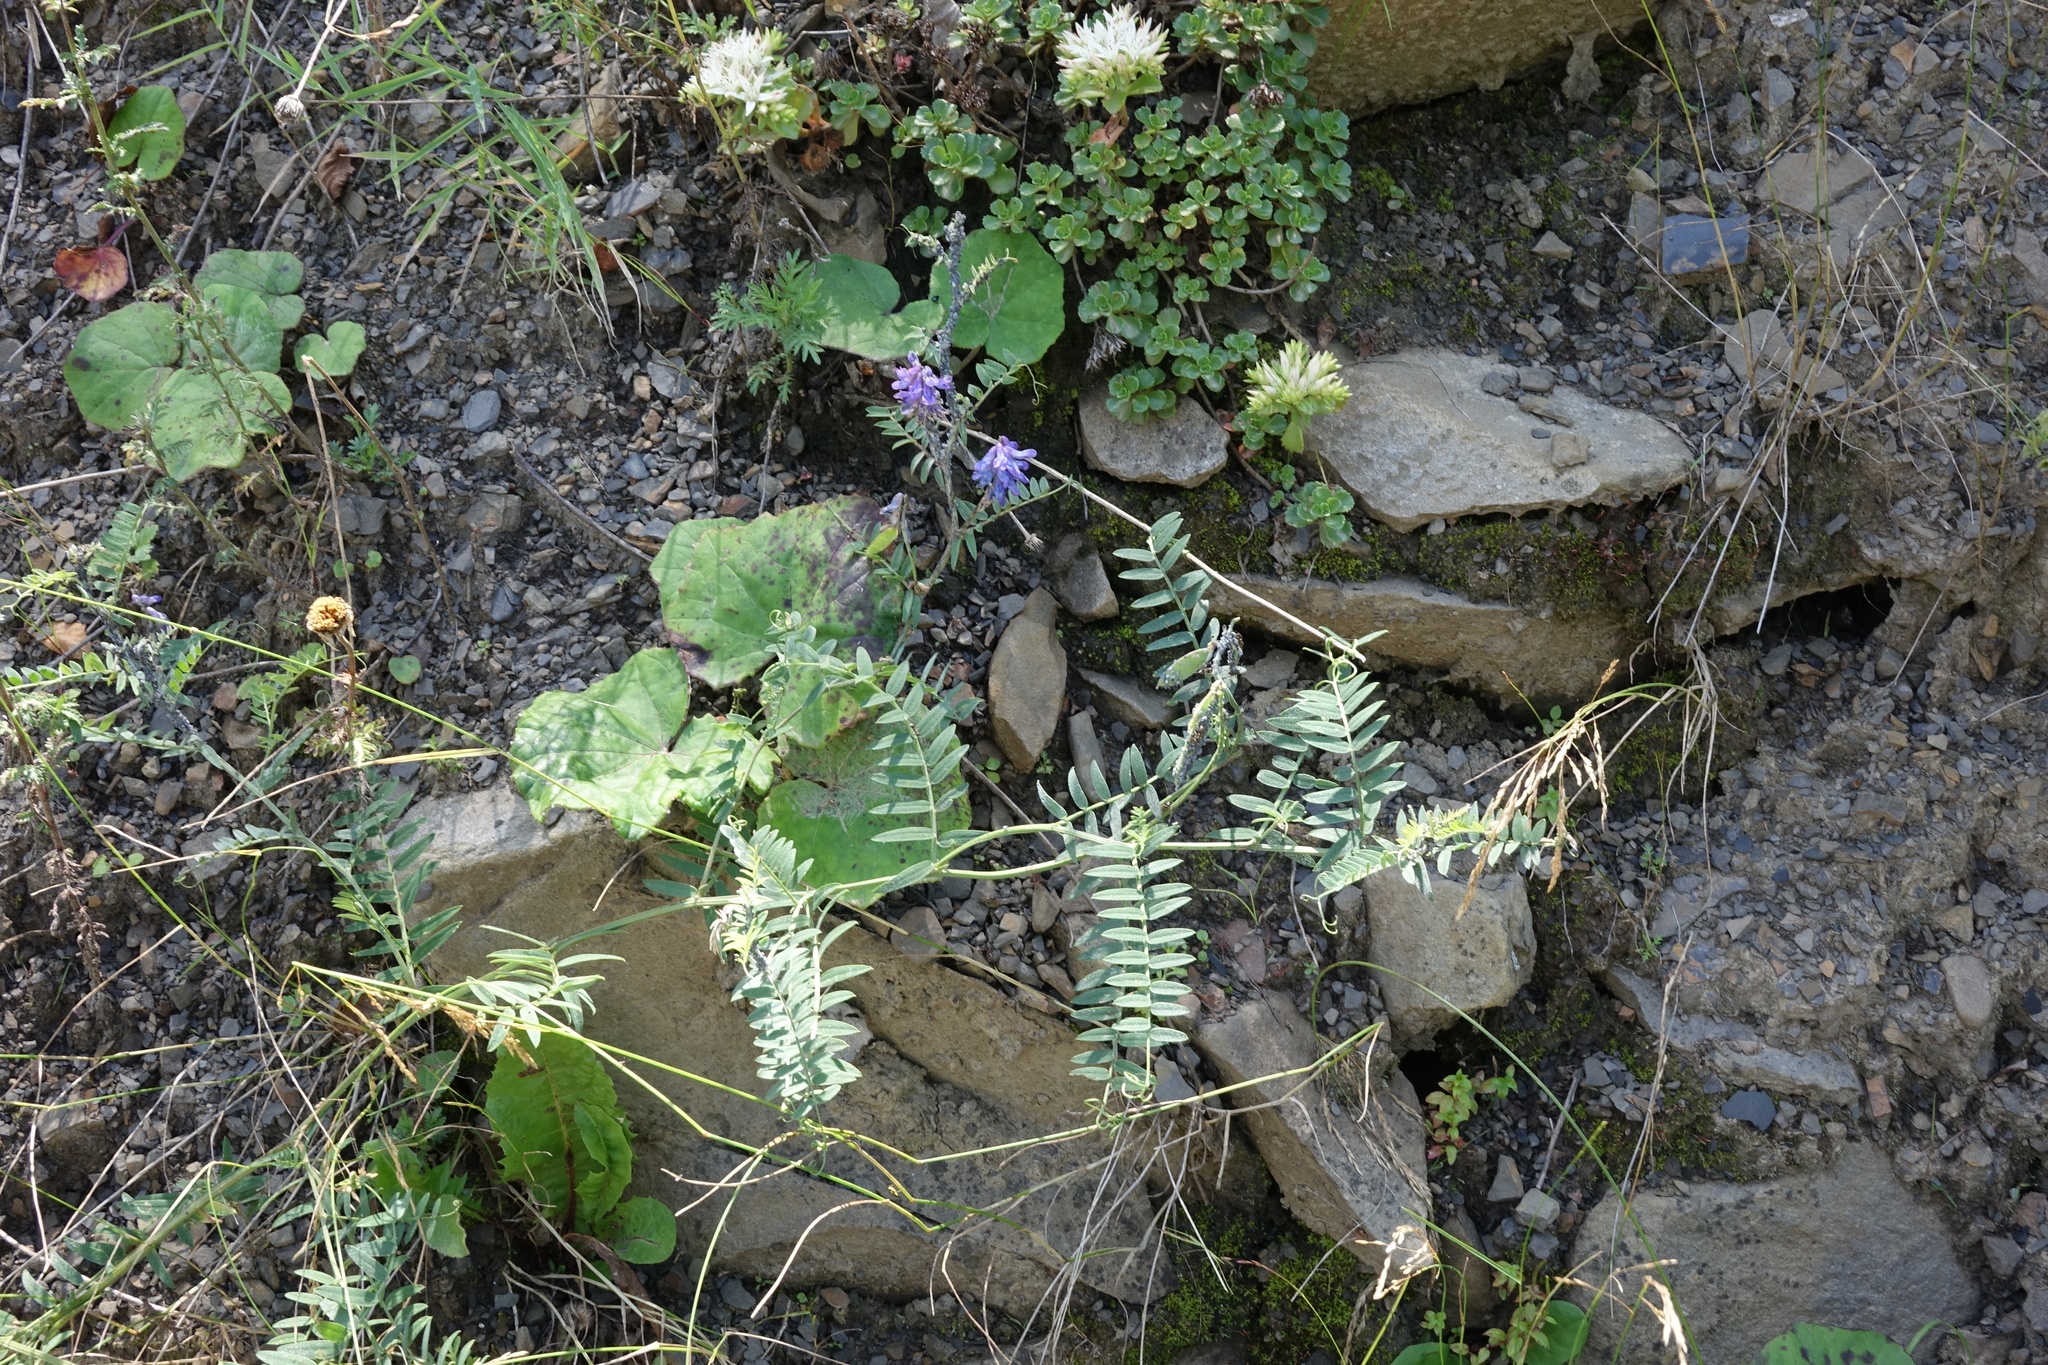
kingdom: Plantae
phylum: Tracheophyta
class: Magnoliopsida
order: Fabales
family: Fabaceae
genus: Vicia
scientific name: Vicia cracca
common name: Bird vetch
